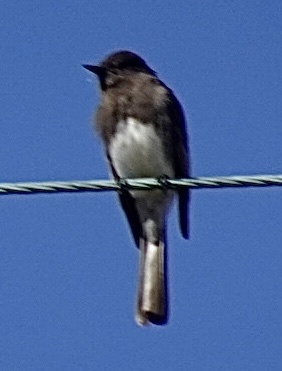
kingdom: Animalia
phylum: Chordata
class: Aves
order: Passeriformes
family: Tyrannidae
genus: Sayornis
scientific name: Sayornis nigricans
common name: Black phoebe
